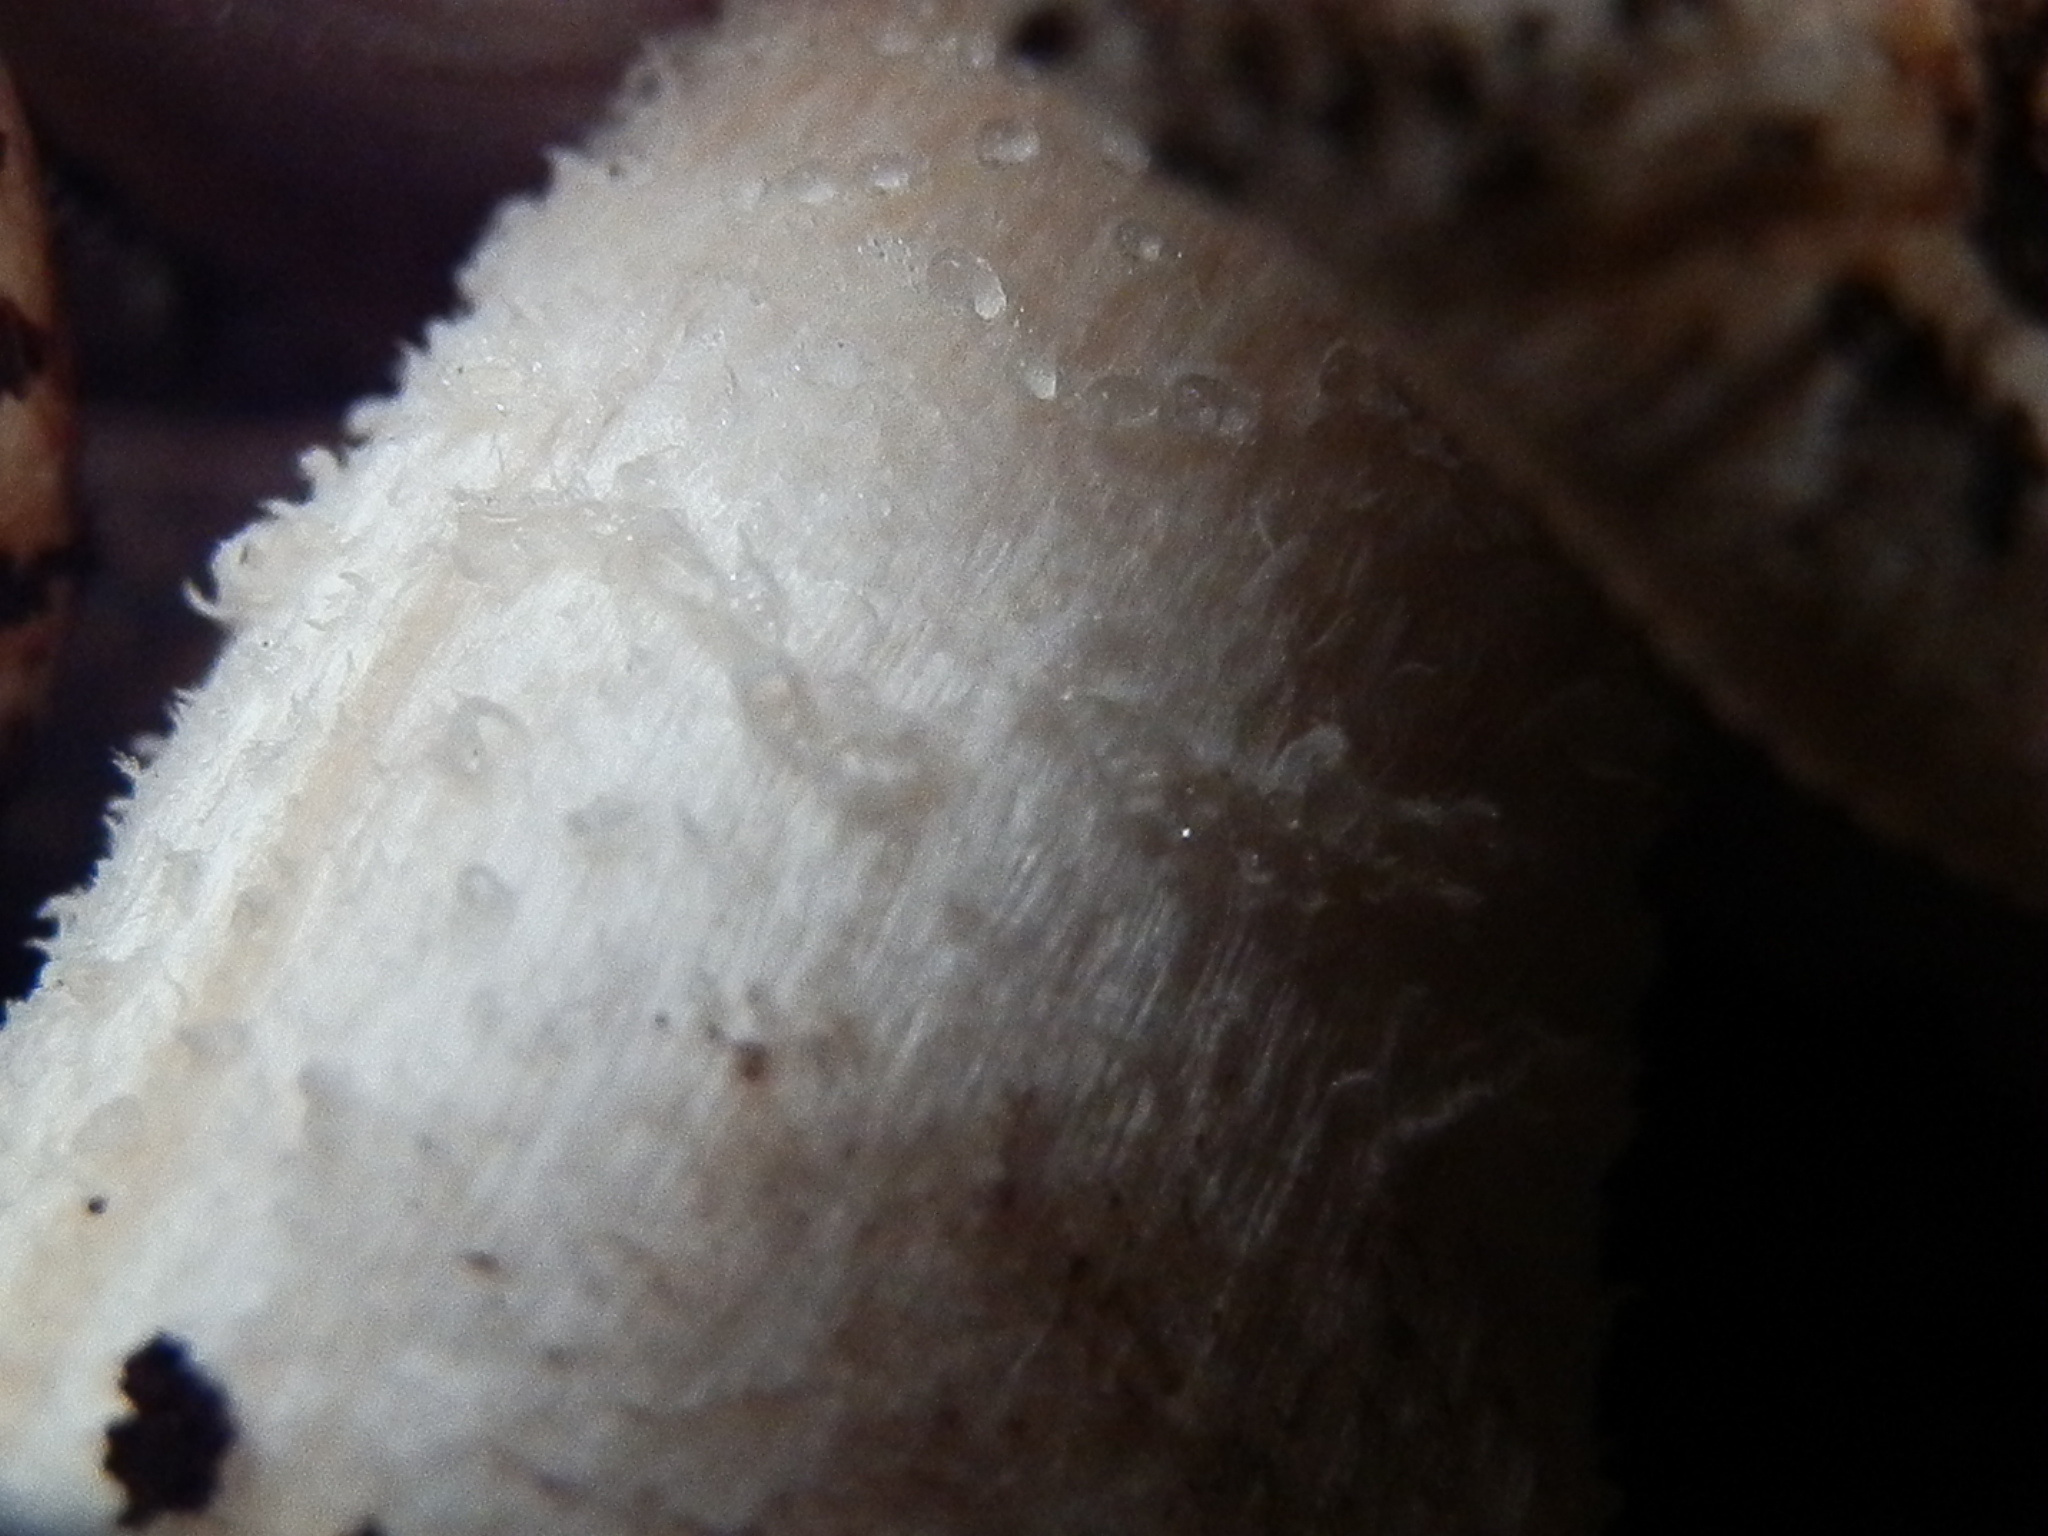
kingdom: Fungi
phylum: Basidiomycota
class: Agaricomycetes
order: Agaricales
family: Hymenogastraceae
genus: Hebeloma
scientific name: Hebeloma albomarginatum
